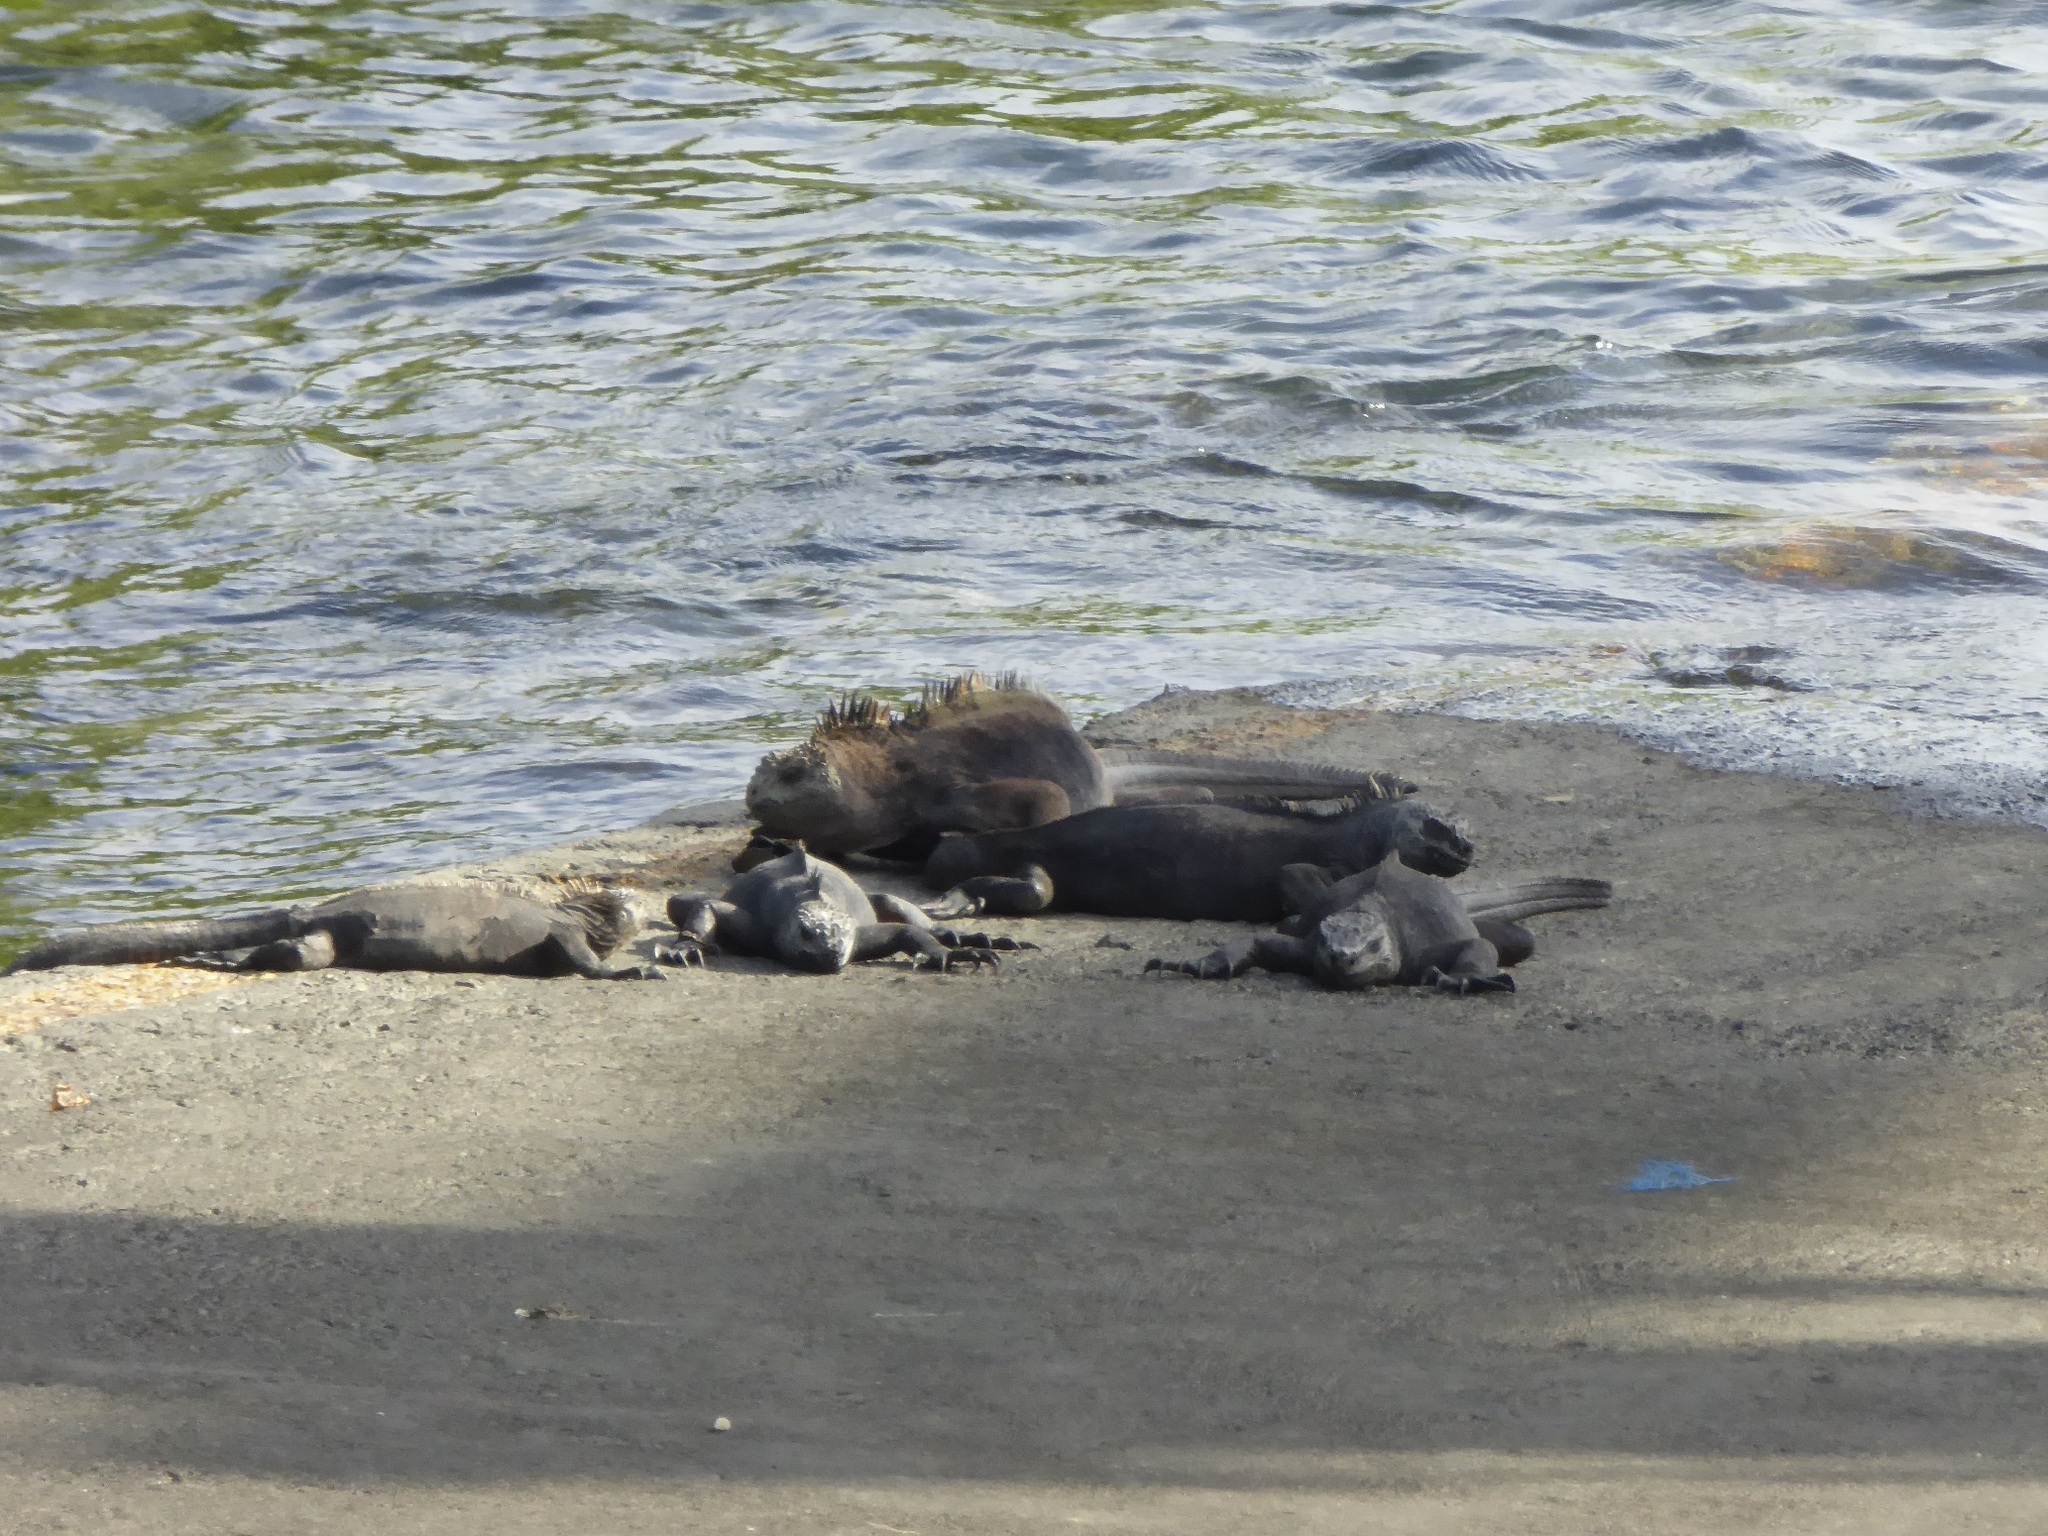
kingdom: Animalia
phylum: Chordata
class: Squamata
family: Iguanidae
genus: Amblyrhynchus
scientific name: Amblyrhynchus cristatus
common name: Marine iguana
